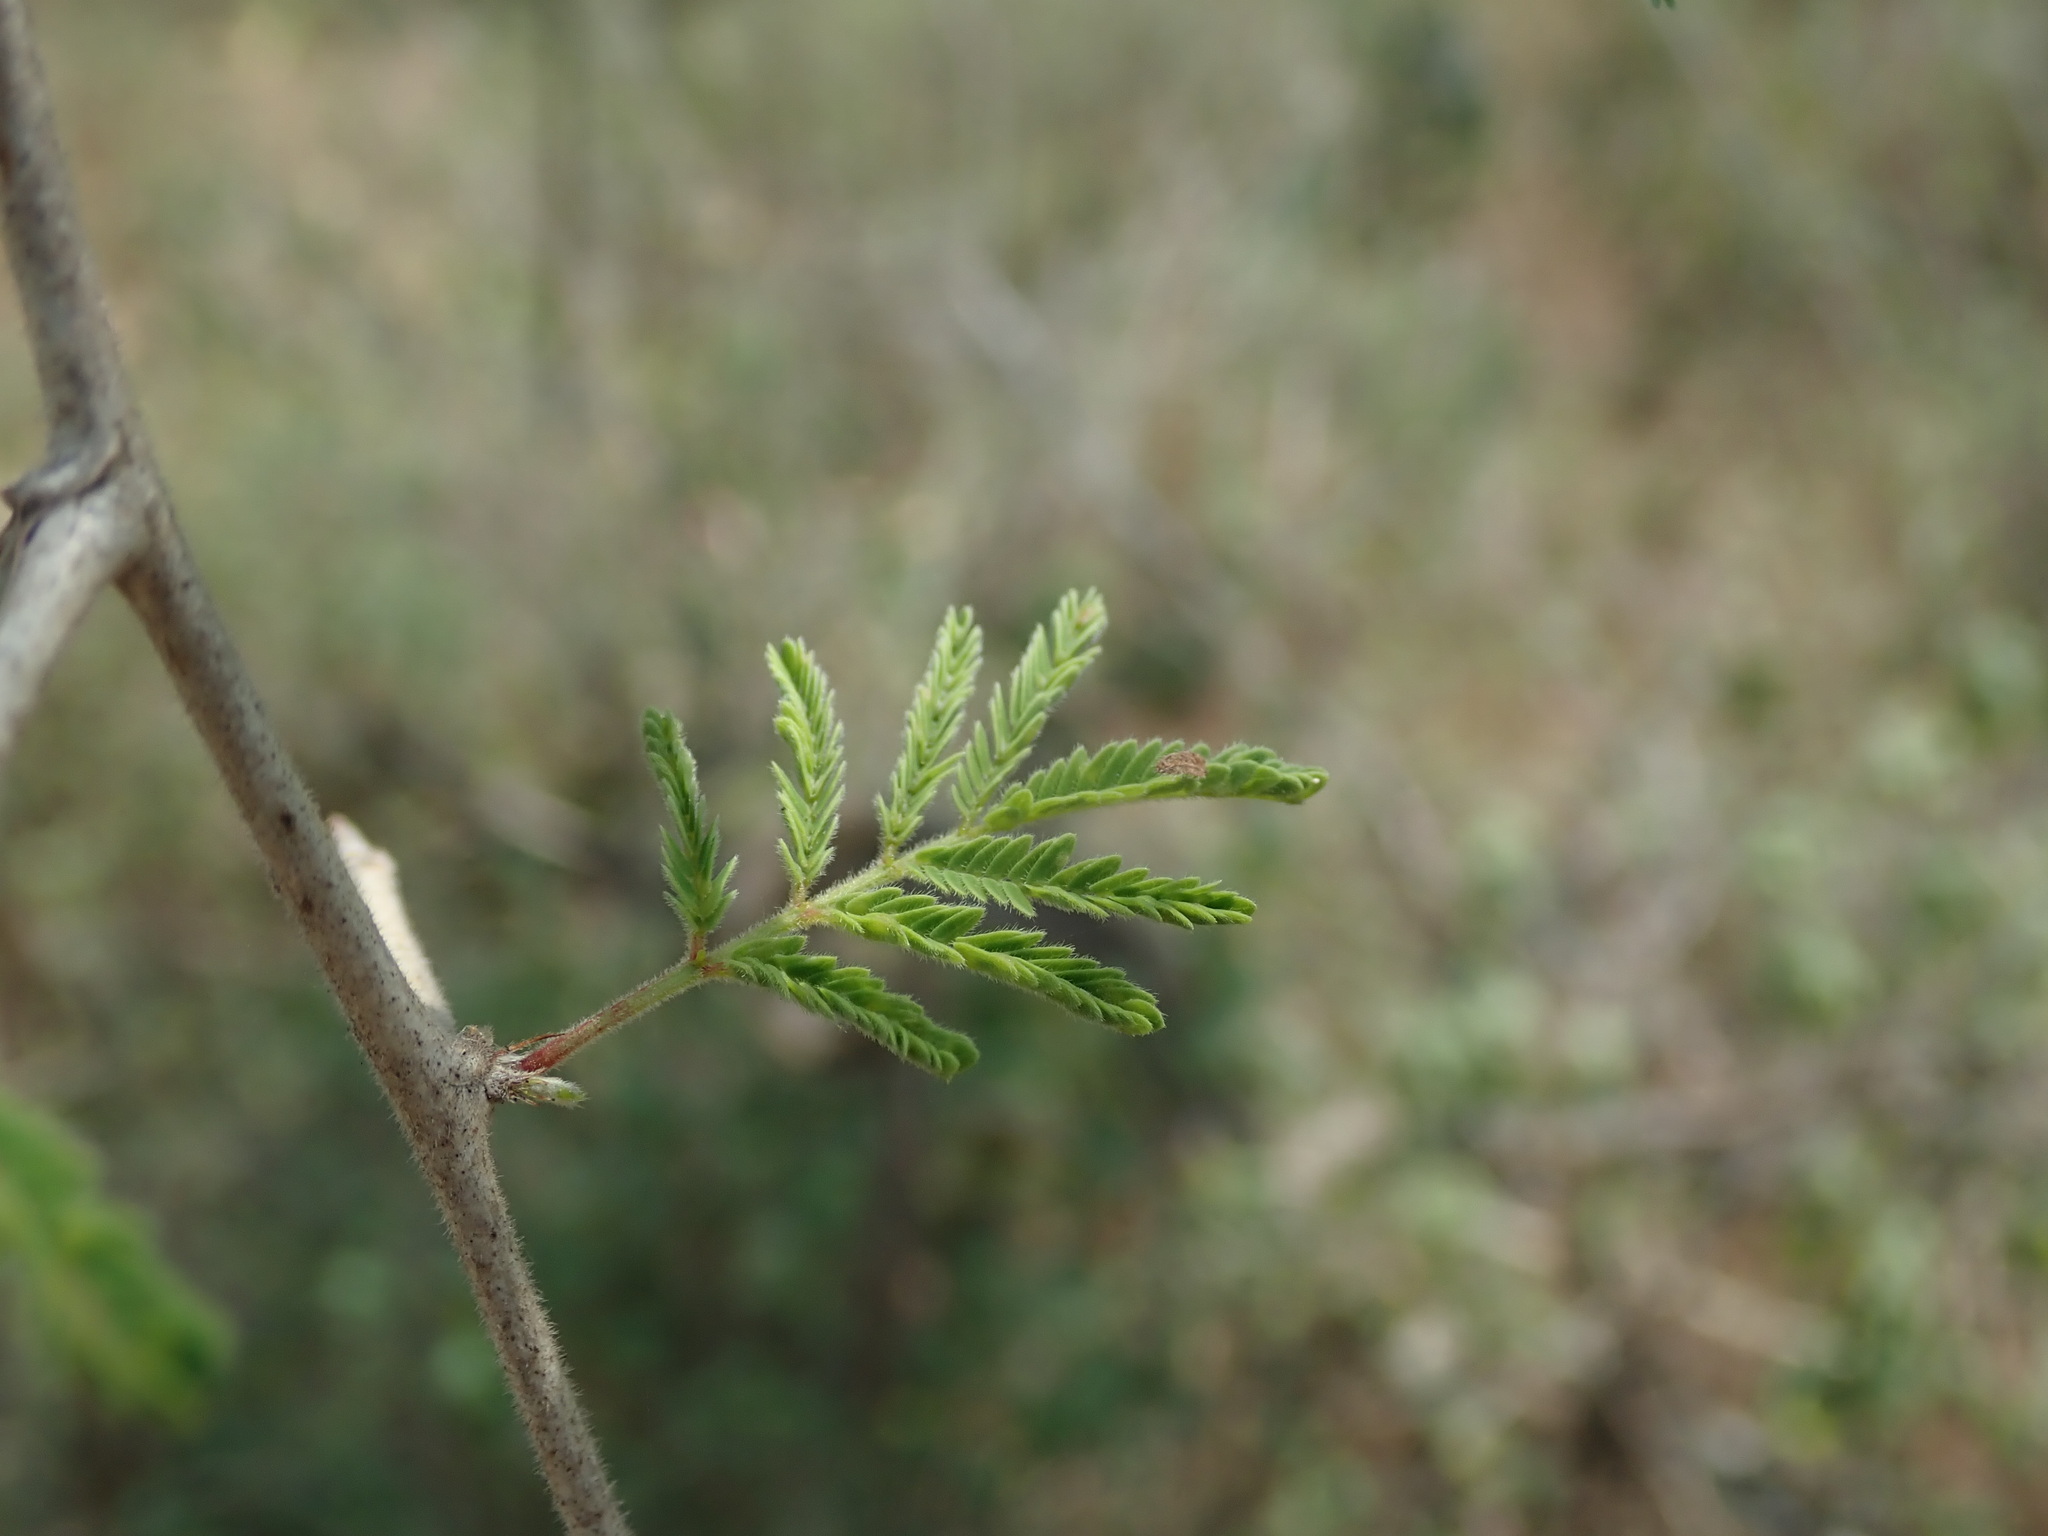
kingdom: Plantae
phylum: Tracheophyta
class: Magnoliopsida
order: Fabales
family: Fabaceae
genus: Dichrostachys
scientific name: Dichrostachys cinerea
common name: Sicklebush
